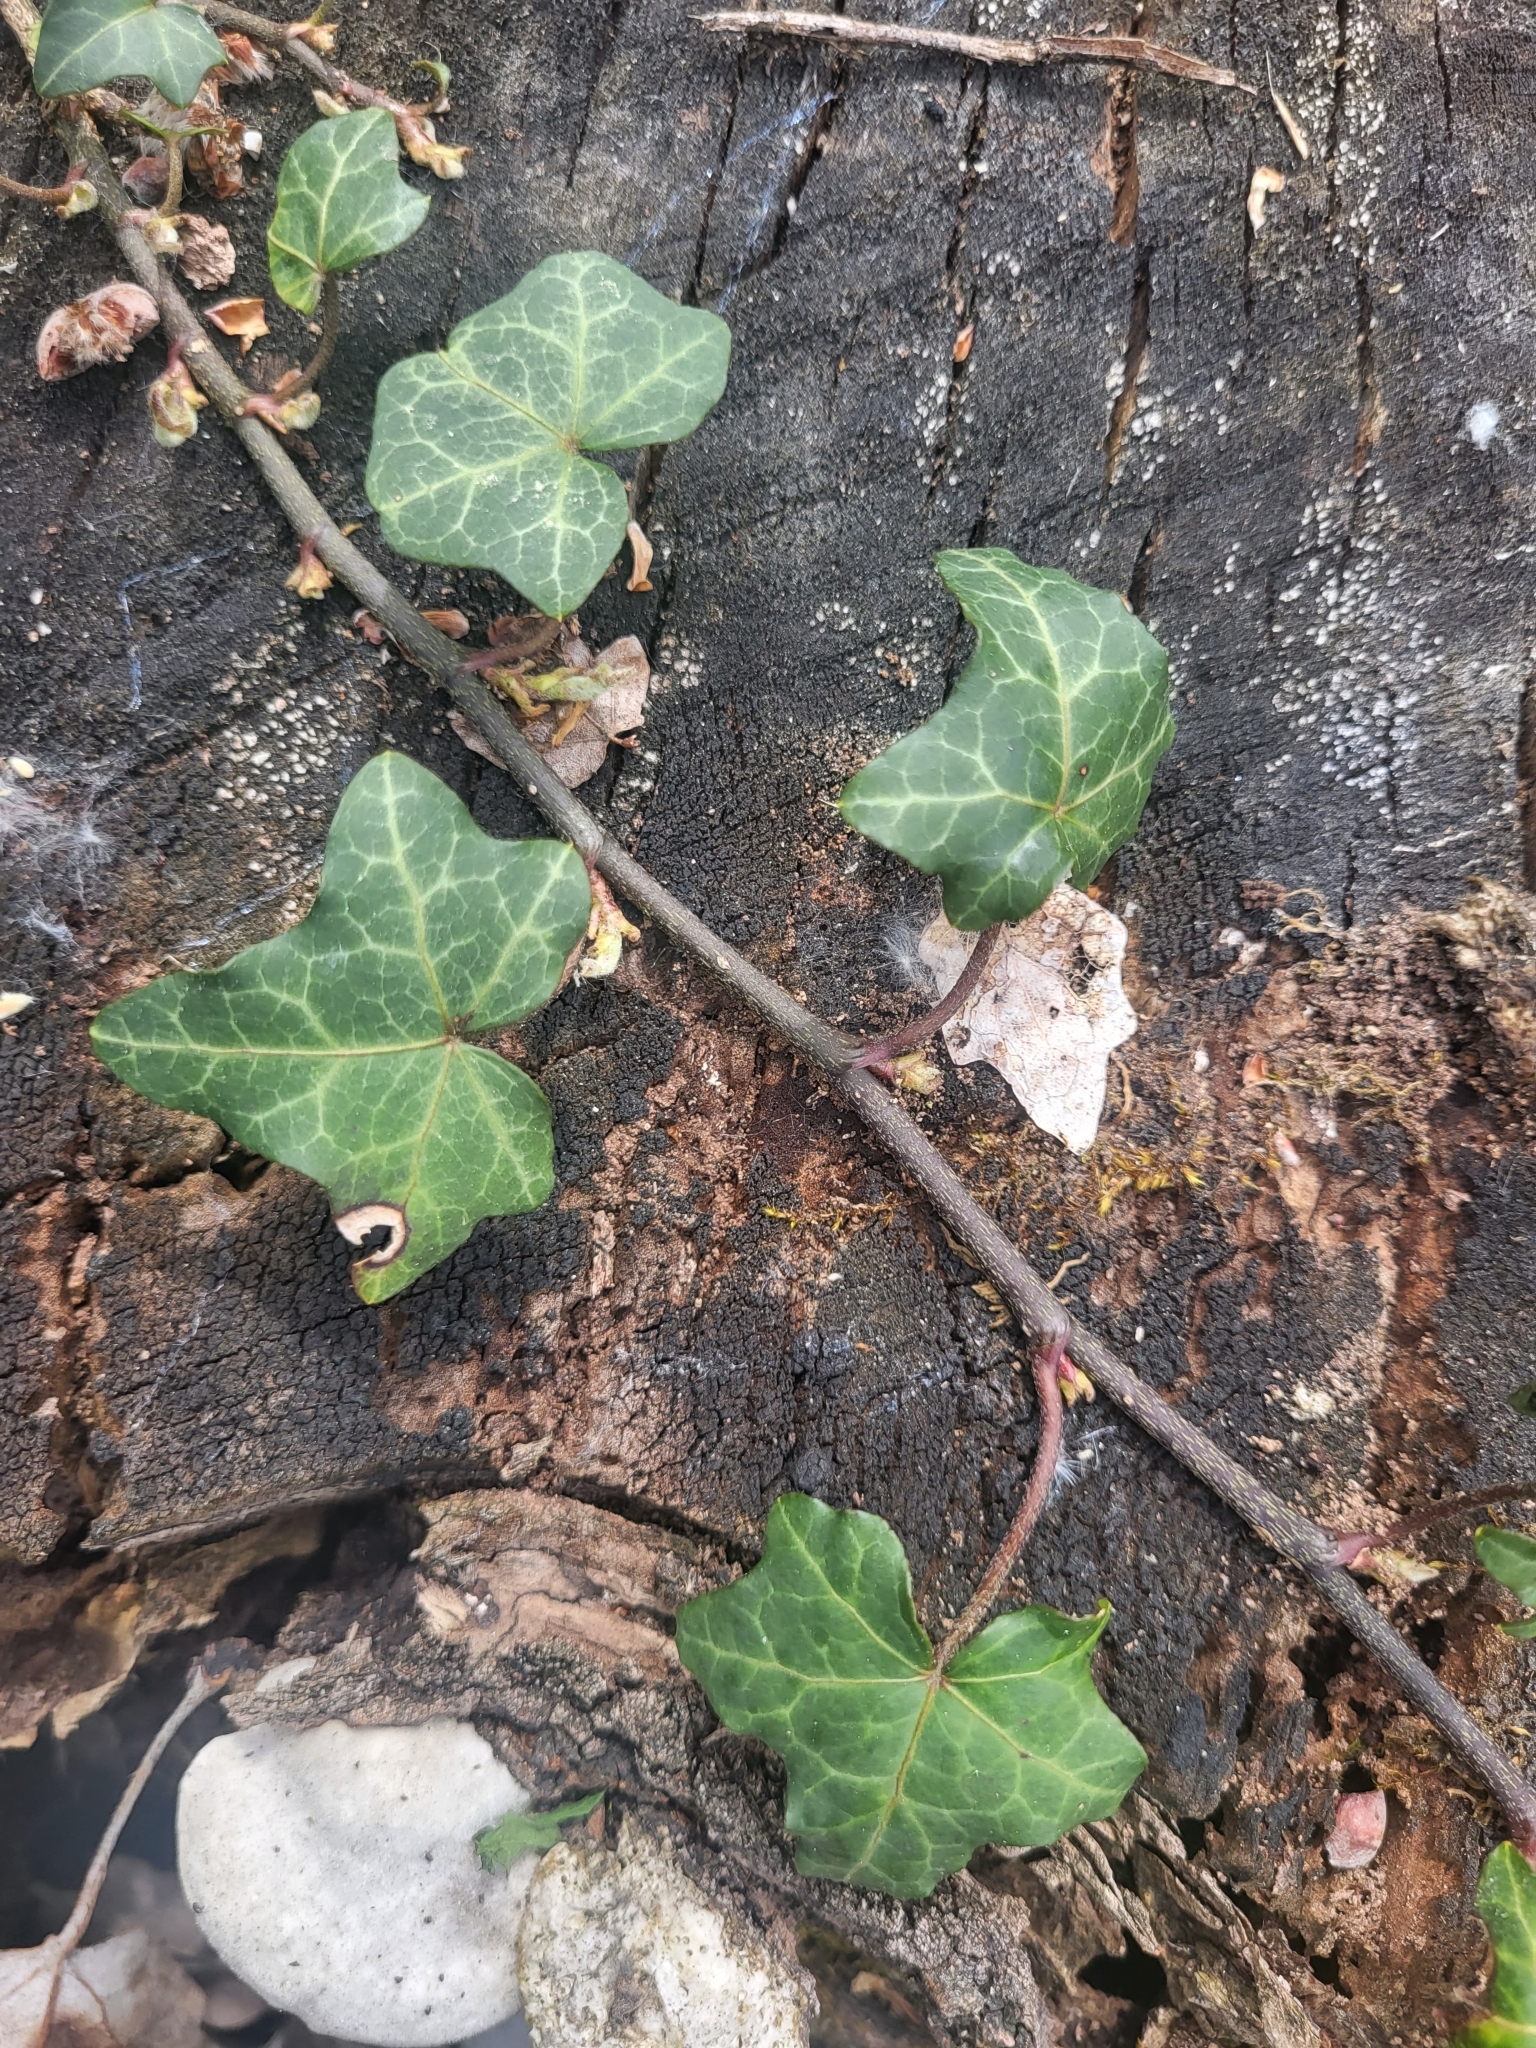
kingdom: Plantae
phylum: Tracheophyta
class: Magnoliopsida
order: Apiales
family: Araliaceae
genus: Hedera
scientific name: Hedera helix
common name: Ivy
